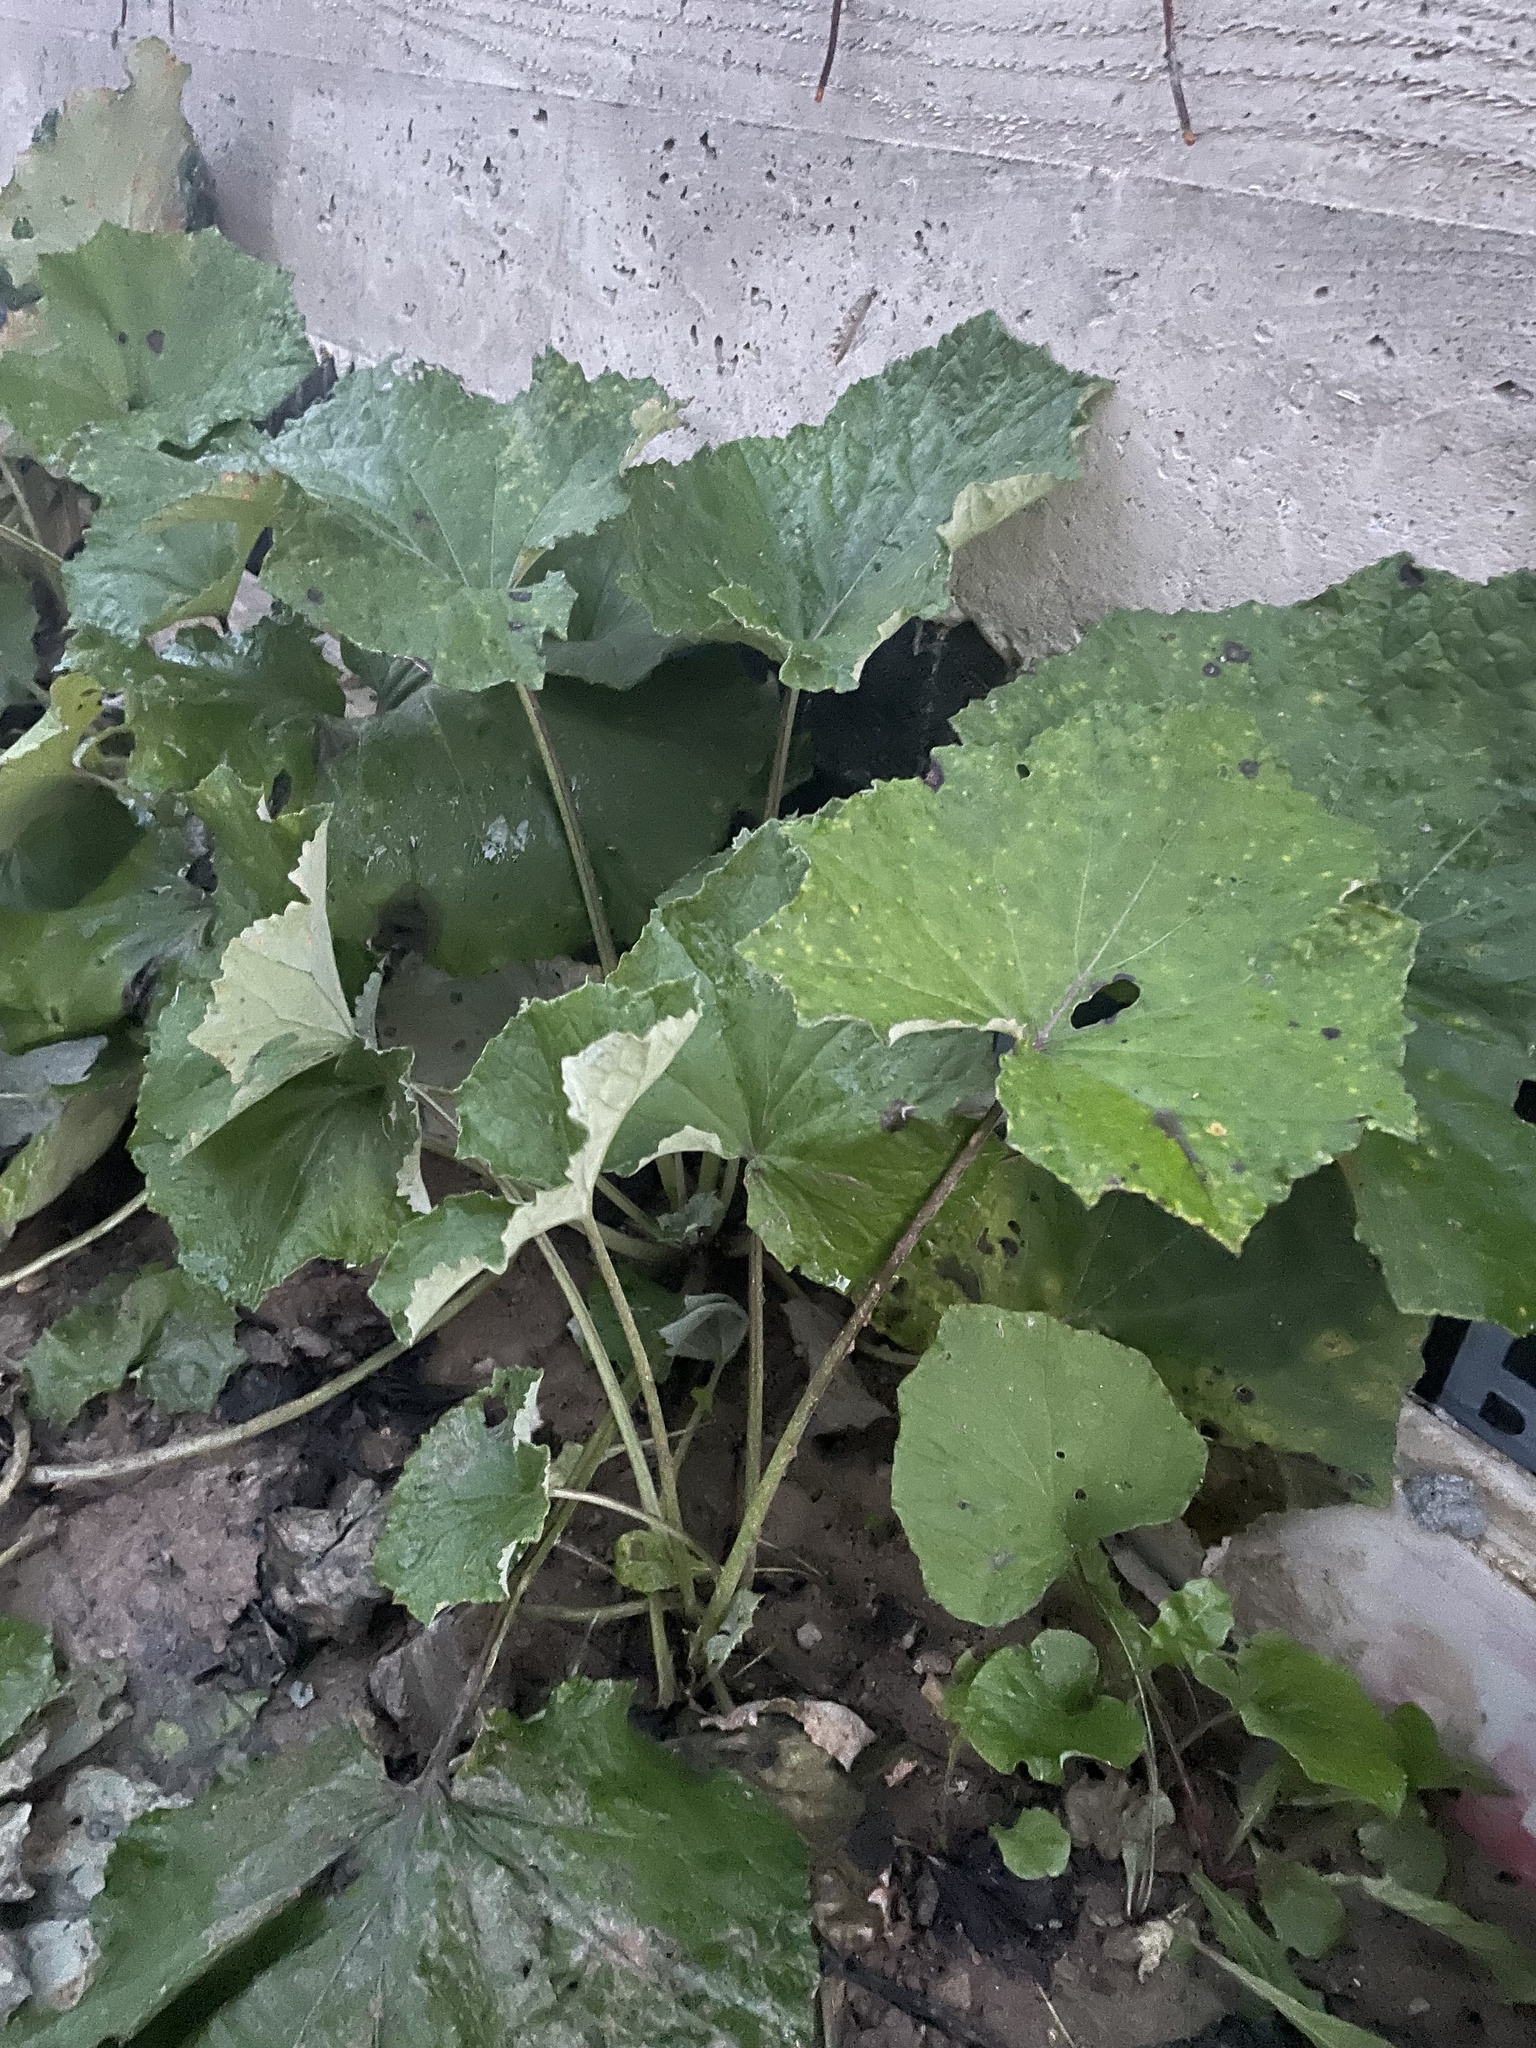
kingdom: Plantae
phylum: Tracheophyta
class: Magnoliopsida
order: Asterales
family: Asteraceae
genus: Tussilago
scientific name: Tussilago farfara
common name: Coltsfoot
